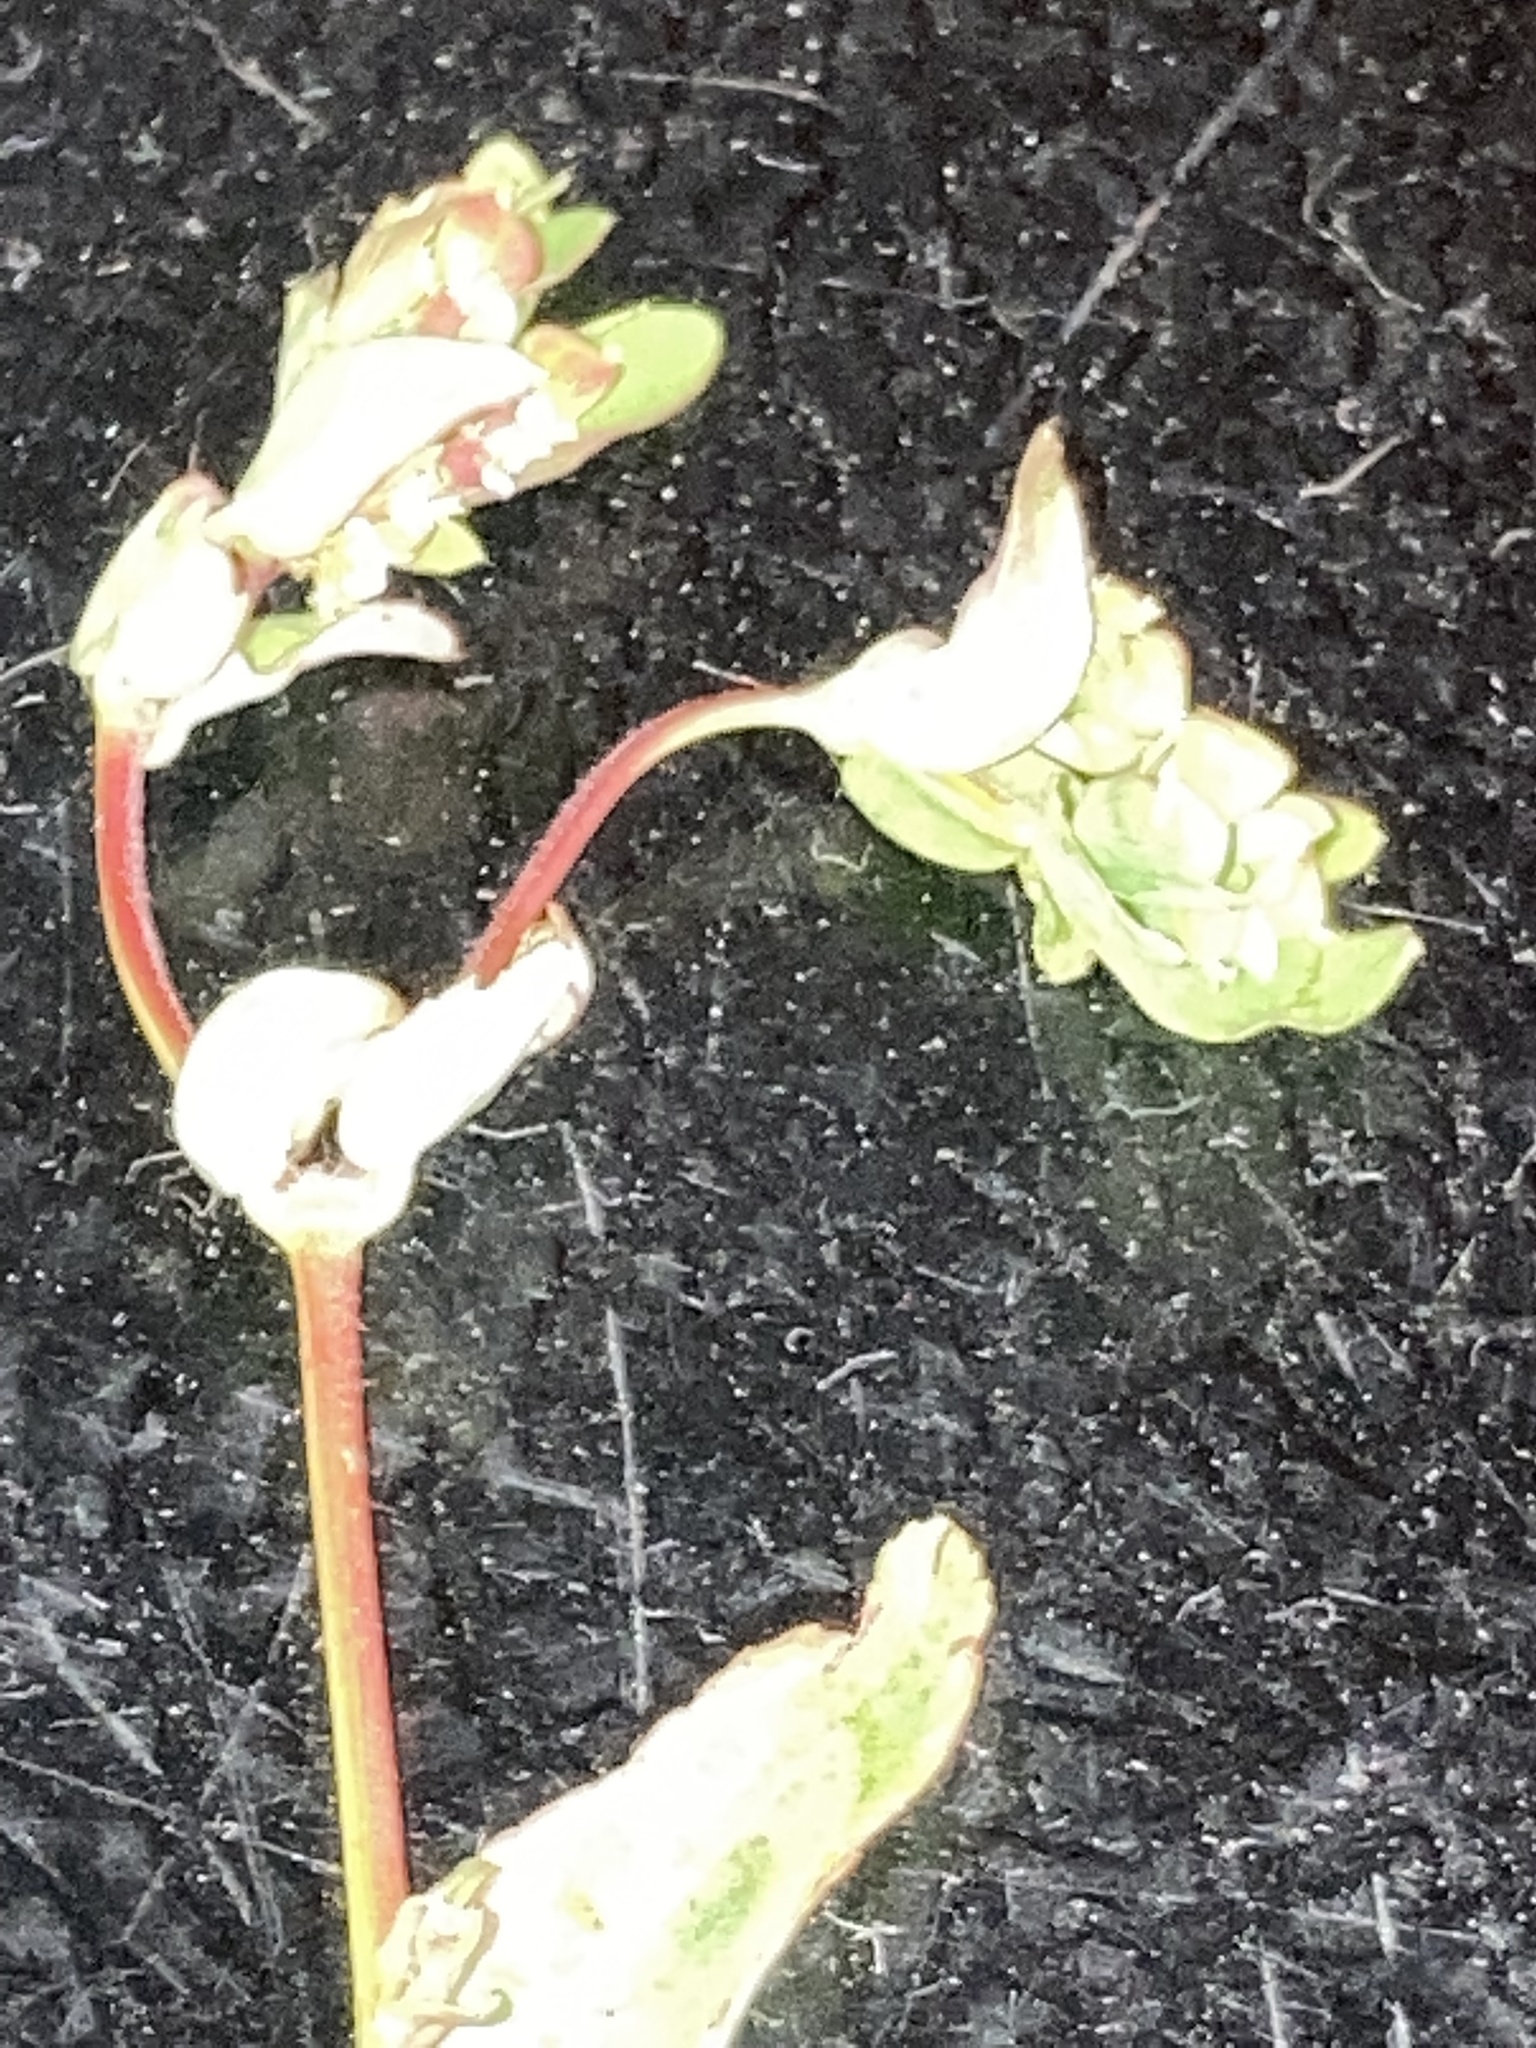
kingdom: Plantae
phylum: Tracheophyta
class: Magnoliopsida
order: Caryophyllales
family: Polygonaceae
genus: Fallopia
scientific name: Fallopia scandens
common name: Climbing false buckwheat
